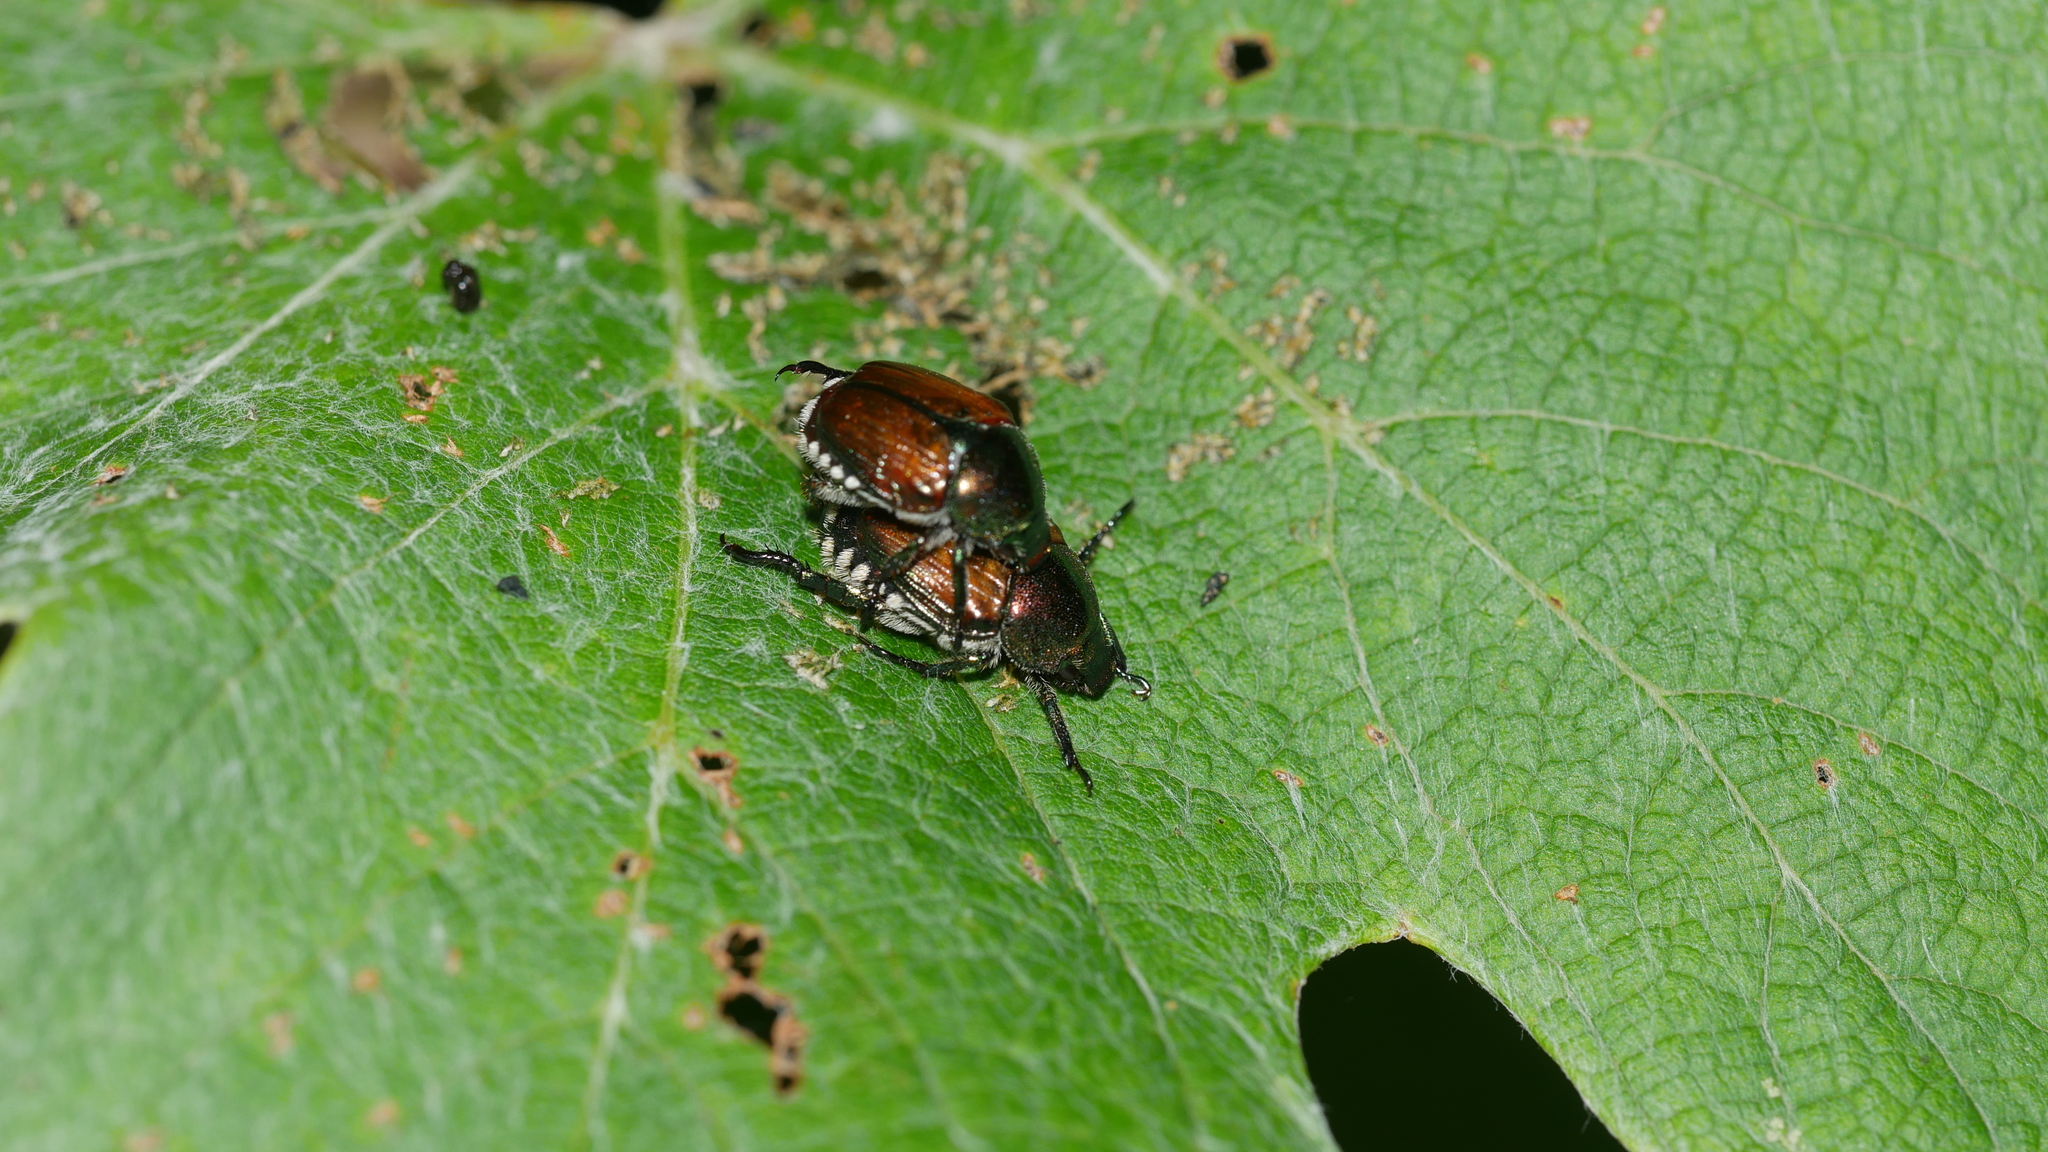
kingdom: Animalia
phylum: Arthropoda
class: Insecta
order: Coleoptera
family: Scarabaeidae
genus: Popillia
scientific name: Popillia japonica
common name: Japanese beetle
